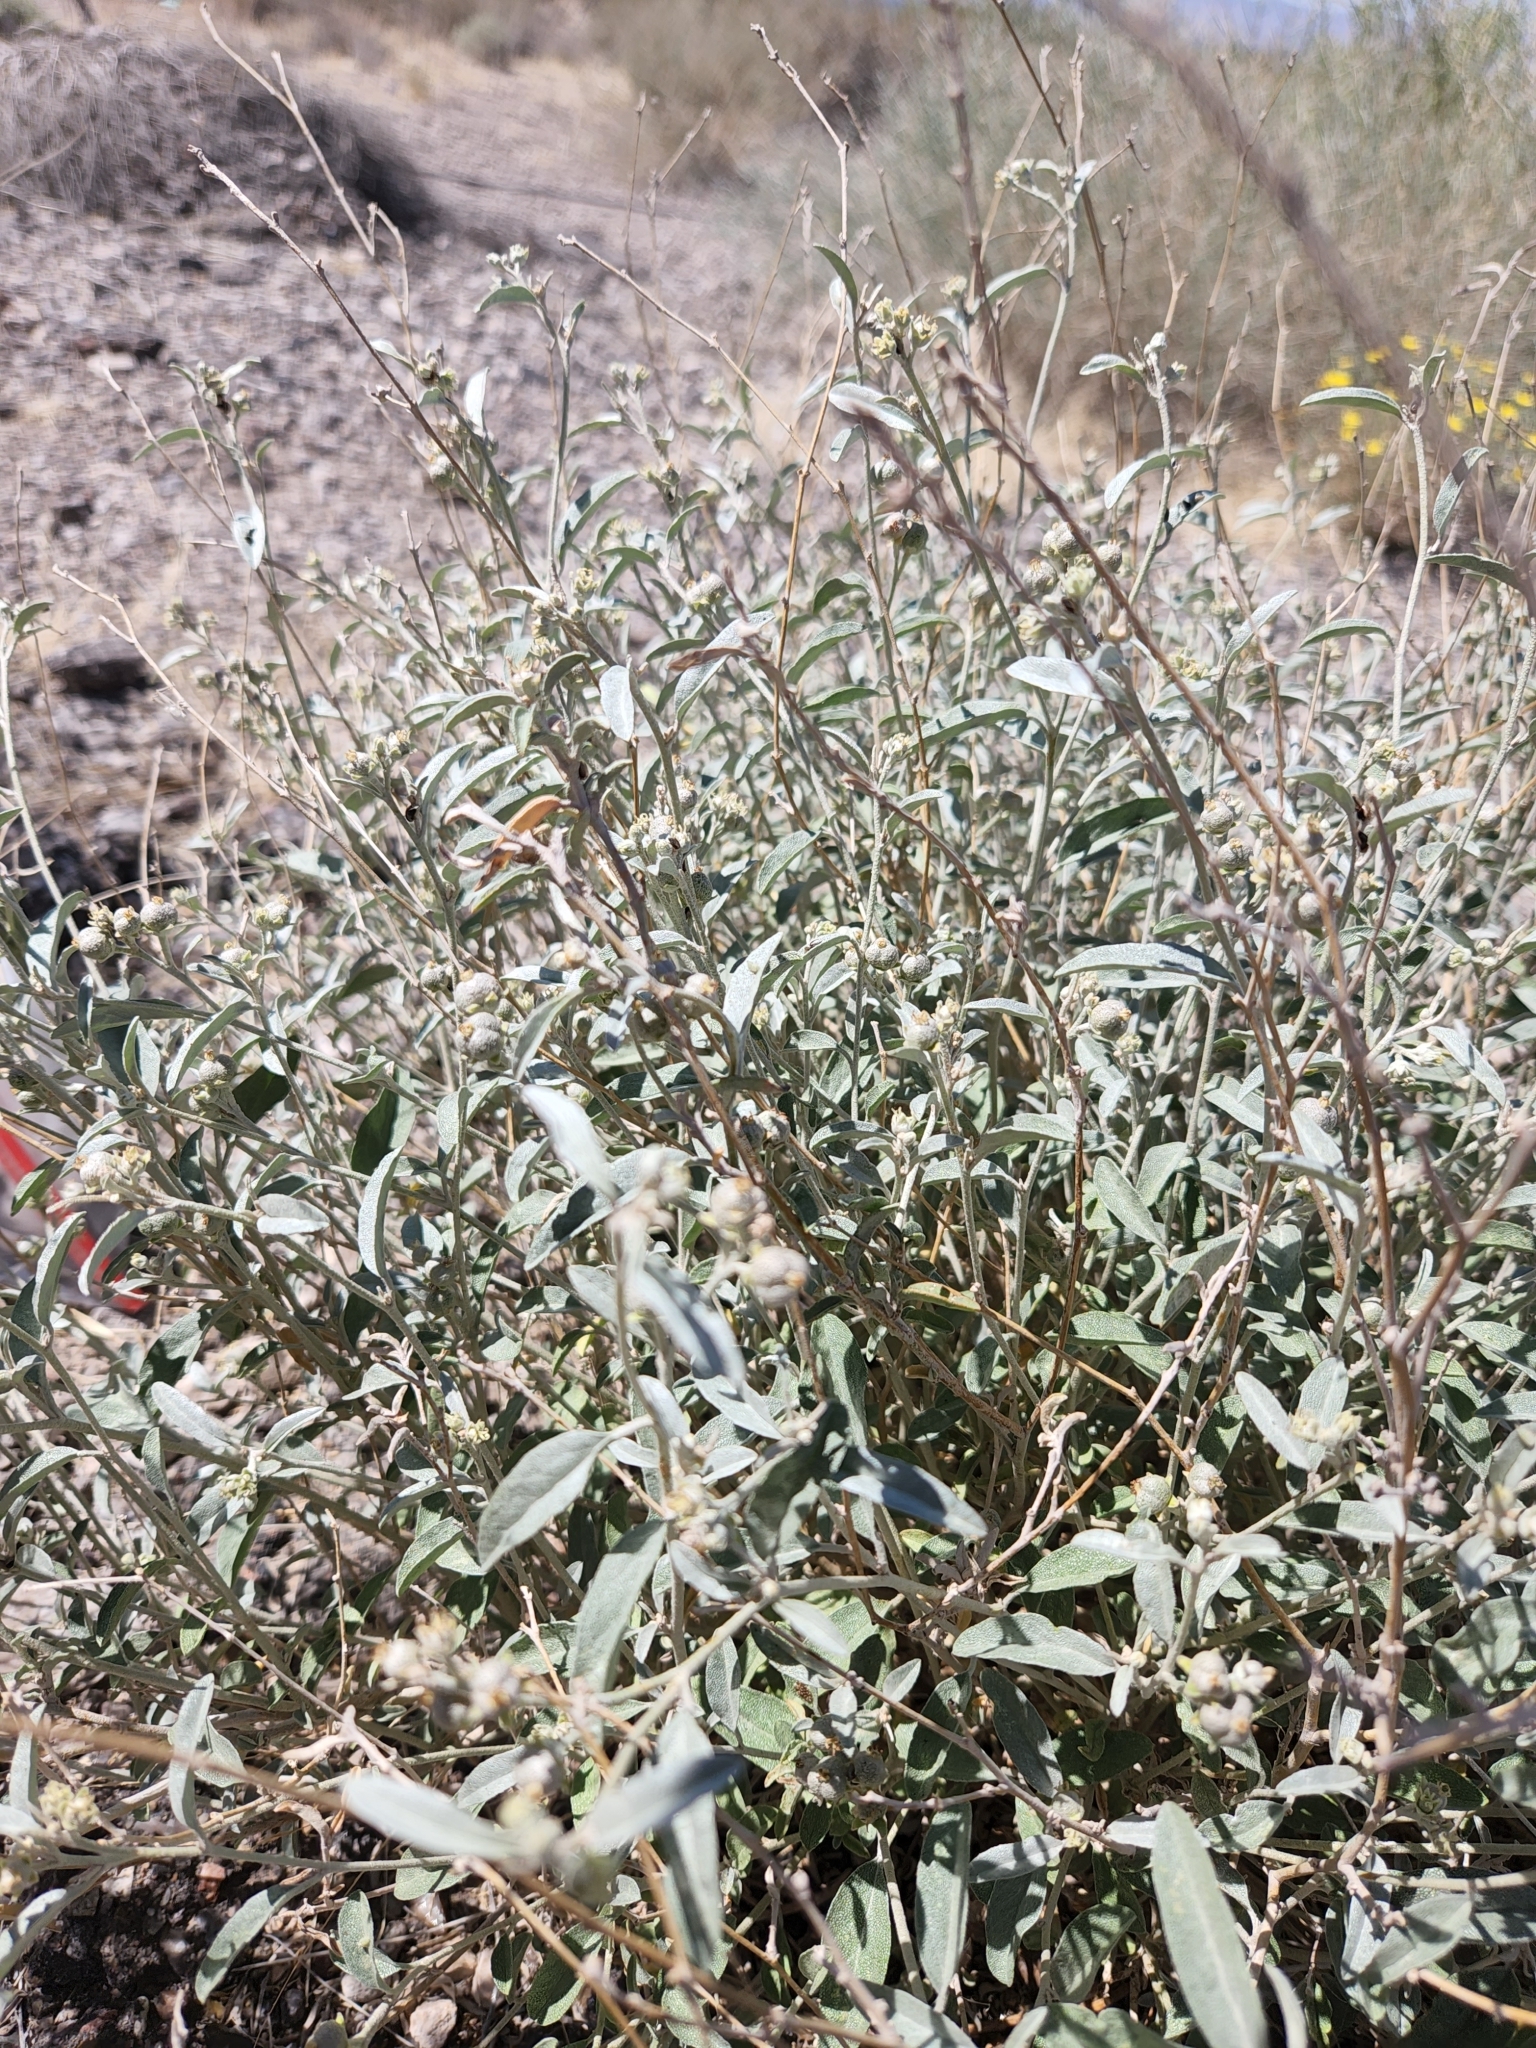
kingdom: Plantae
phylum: Tracheophyta
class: Magnoliopsida
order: Malpighiales
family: Euphorbiaceae
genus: Croton
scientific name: Croton dioicus
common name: Grassland croton
